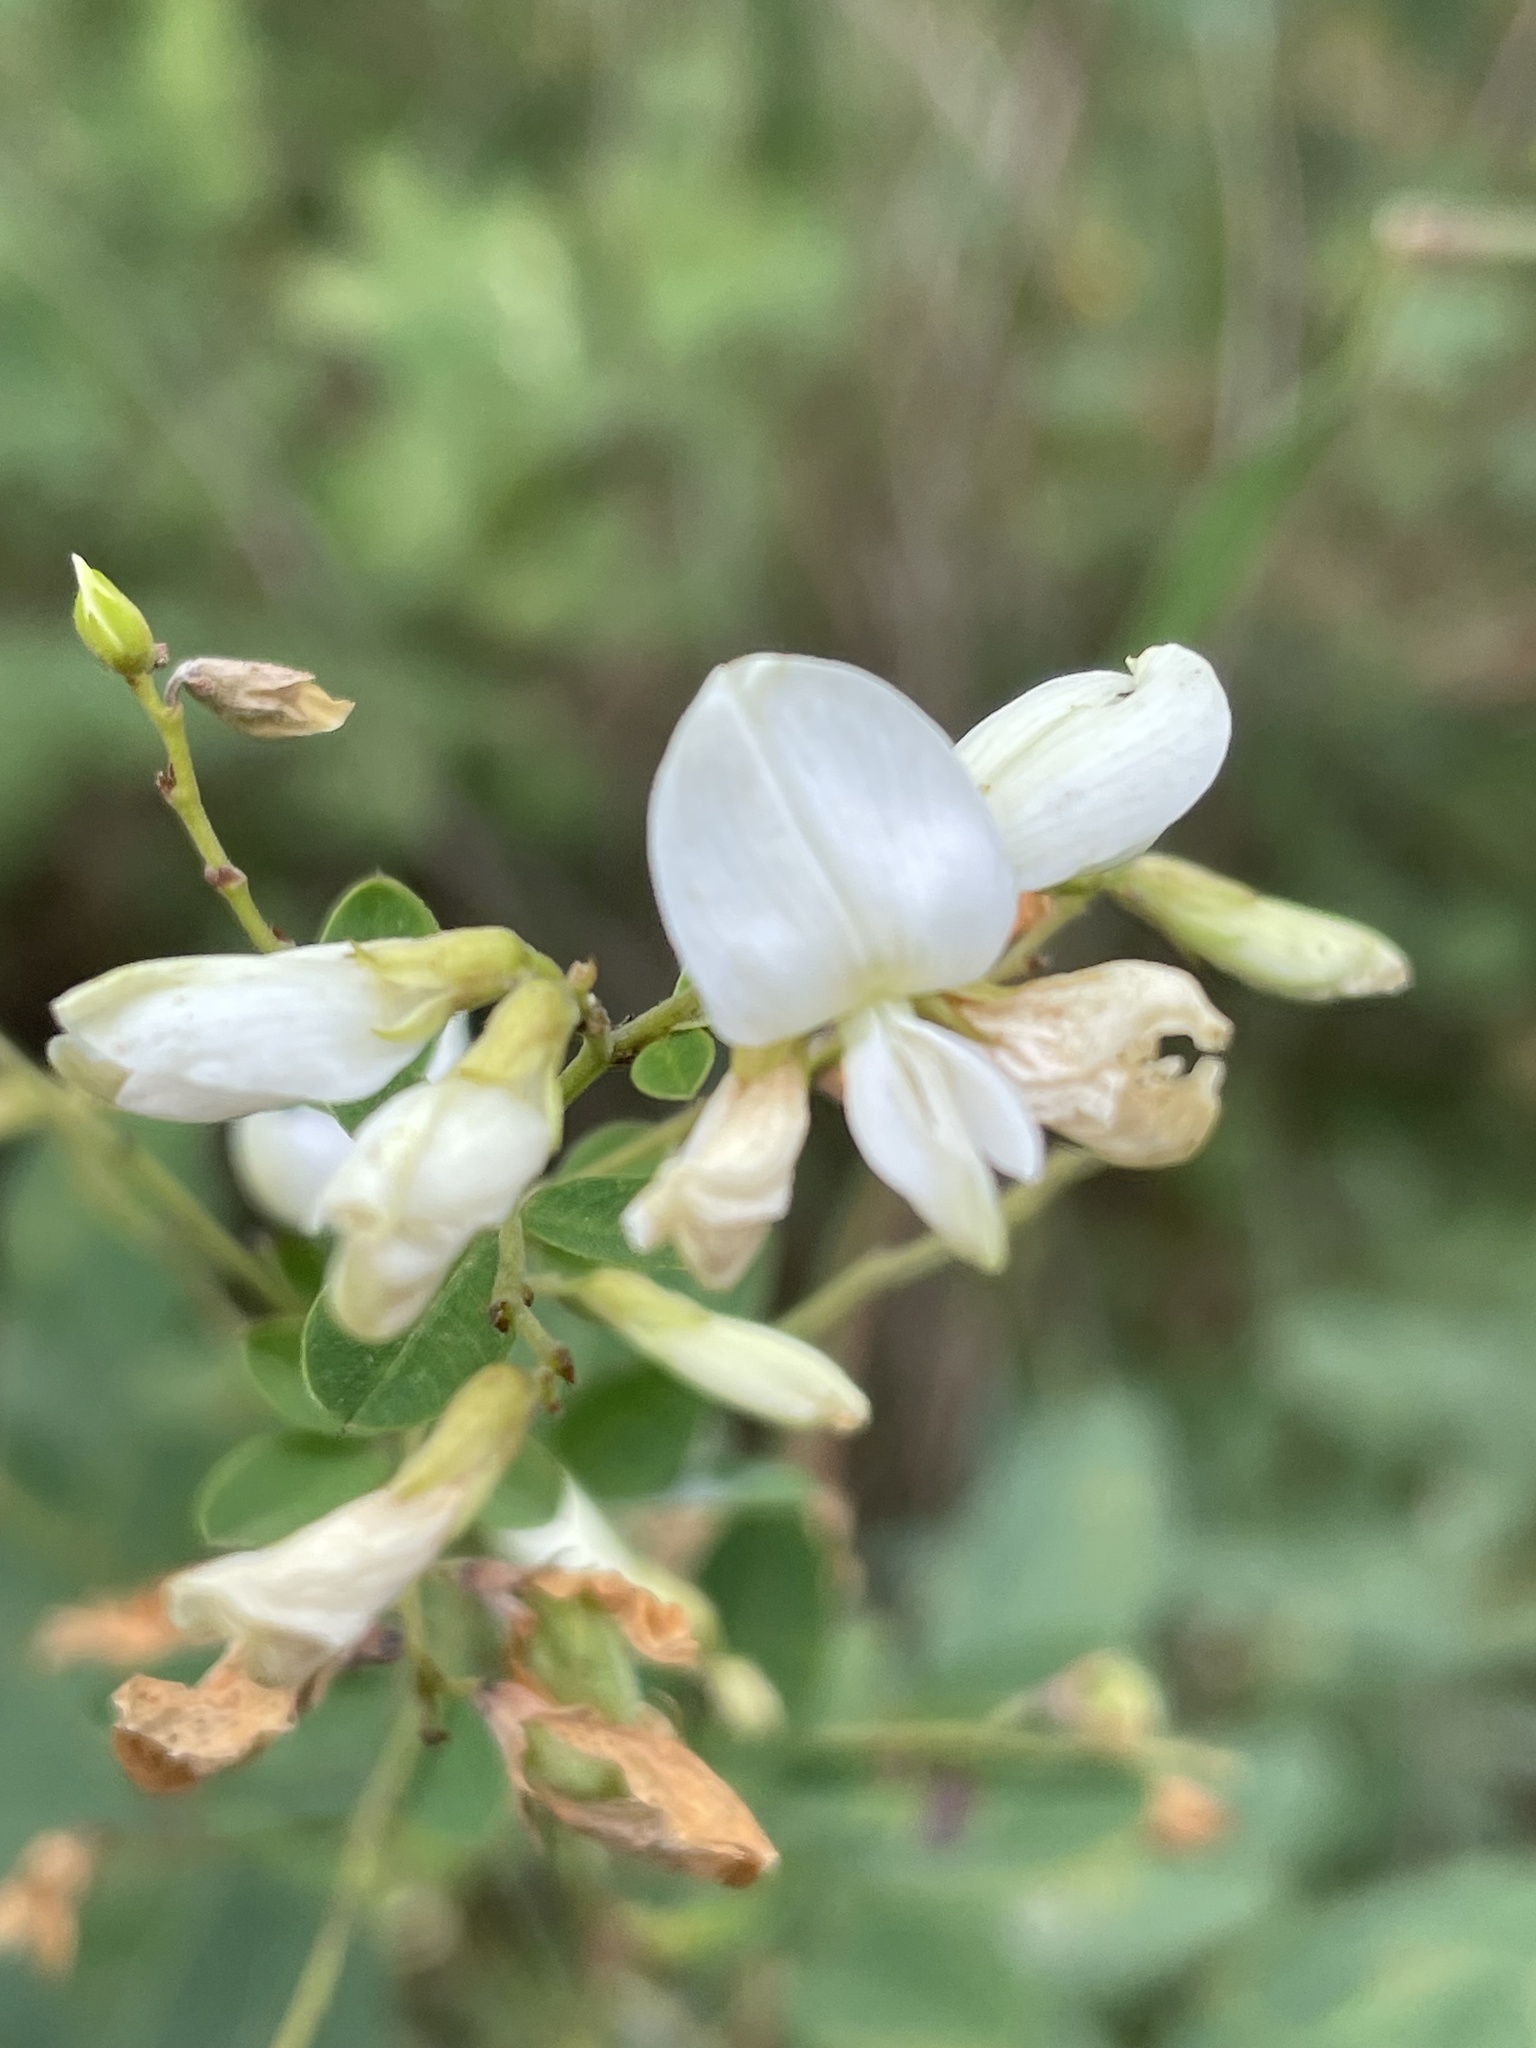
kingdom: Plantae
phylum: Tracheophyta
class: Magnoliopsida
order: Fabales
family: Fabaceae
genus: Lespedeza
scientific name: Lespedeza bicolor
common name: Shrub lespedeza
